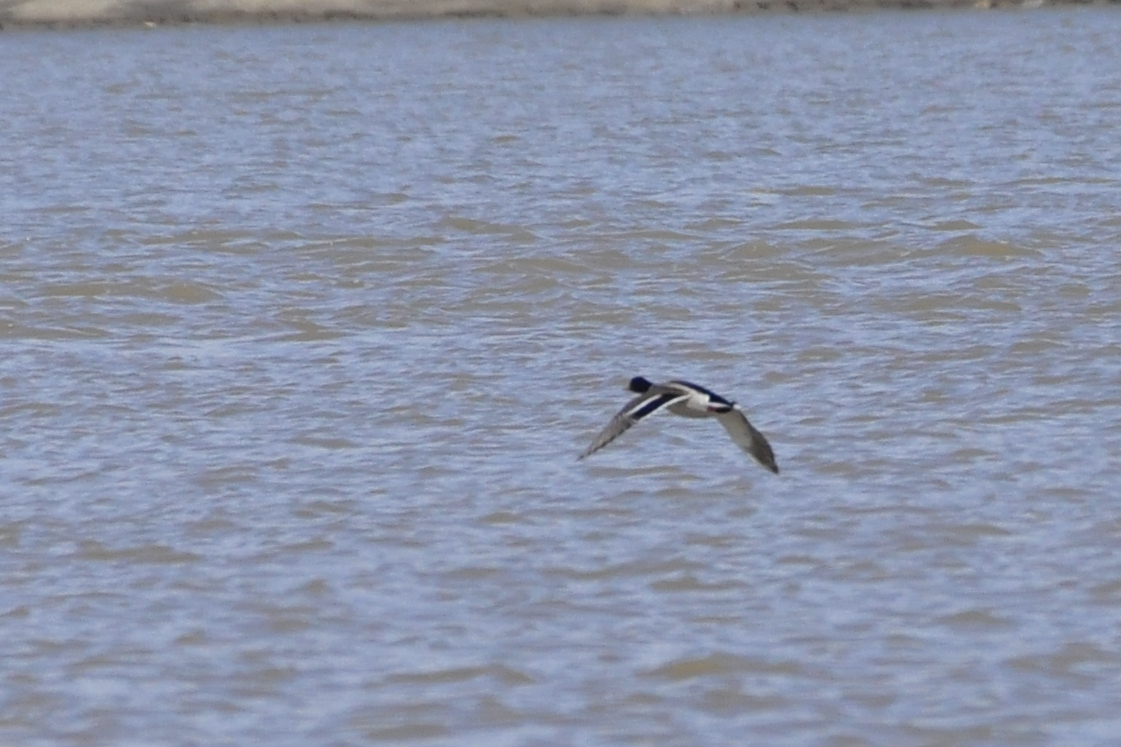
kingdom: Animalia
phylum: Chordata
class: Aves
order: Anseriformes
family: Anatidae
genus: Anas
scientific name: Anas platyrhynchos
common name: Mallard
